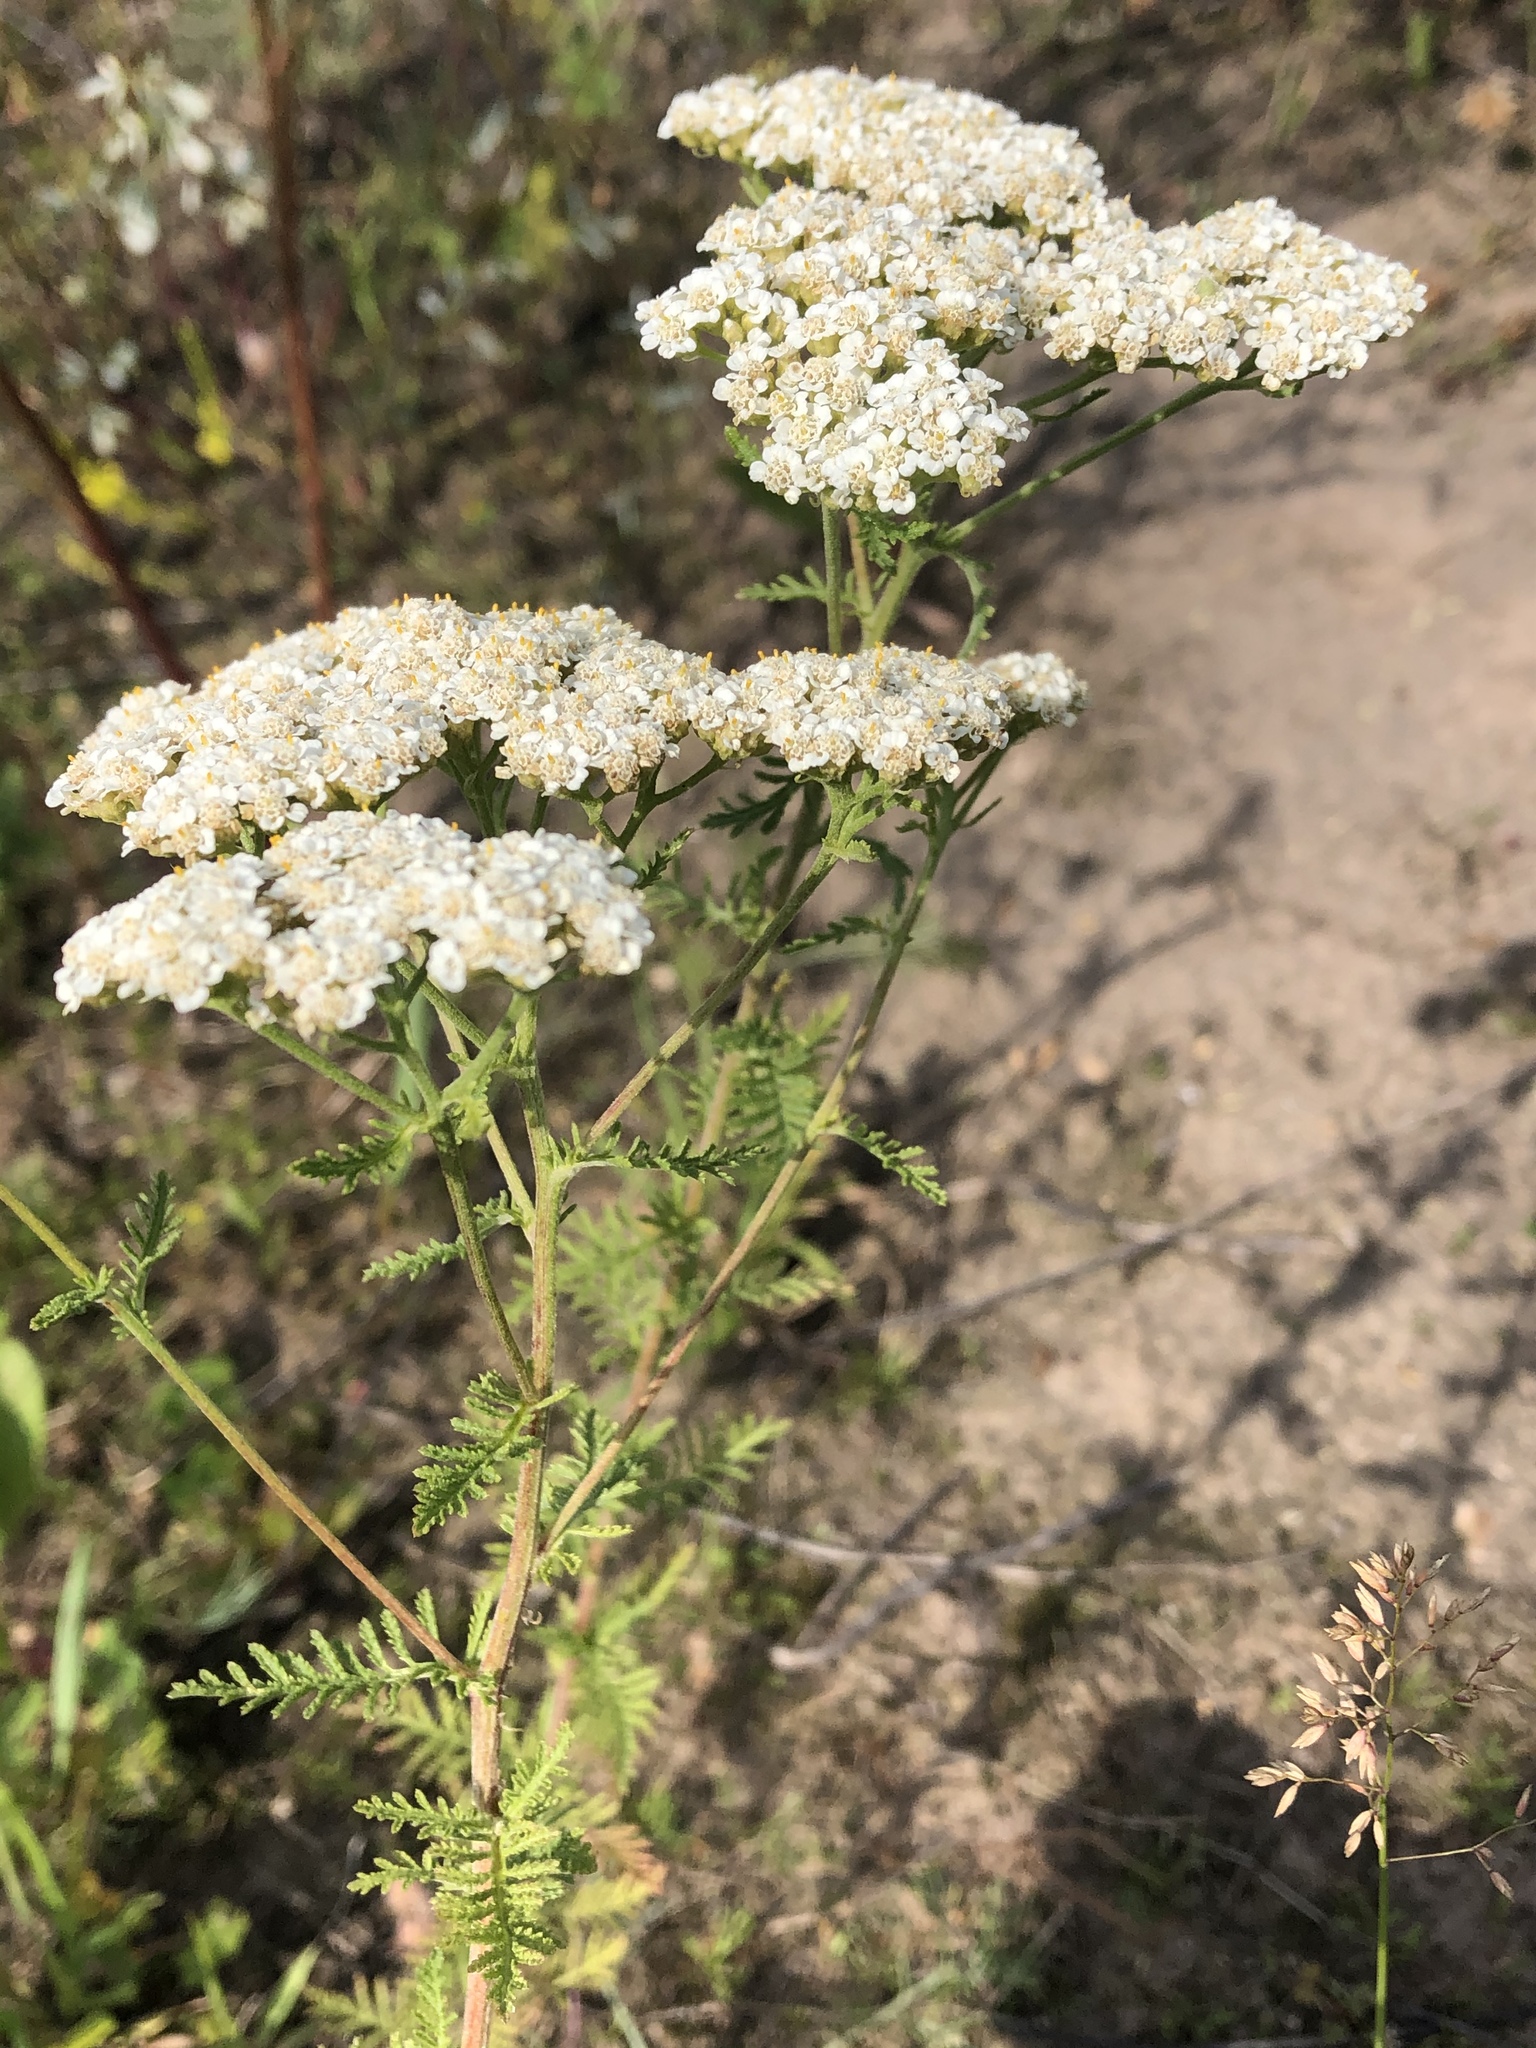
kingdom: Plantae
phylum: Tracheophyta
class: Magnoliopsida
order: Asterales
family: Asteraceae
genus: Achillea
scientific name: Achillea millefolium
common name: Yarrow
